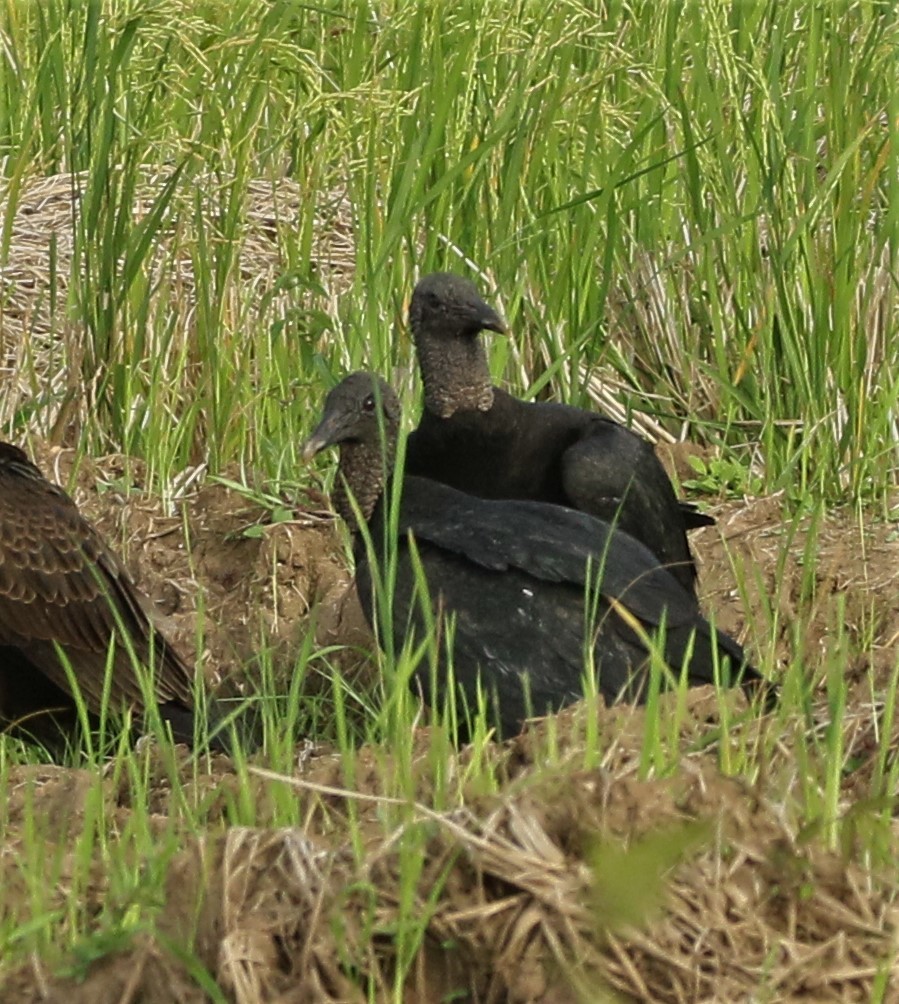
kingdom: Animalia
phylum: Chordata
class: Aves
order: Accipitriformes
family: Cathartidae
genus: Coragyps
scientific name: Coragyps atratus
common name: Black vulture
